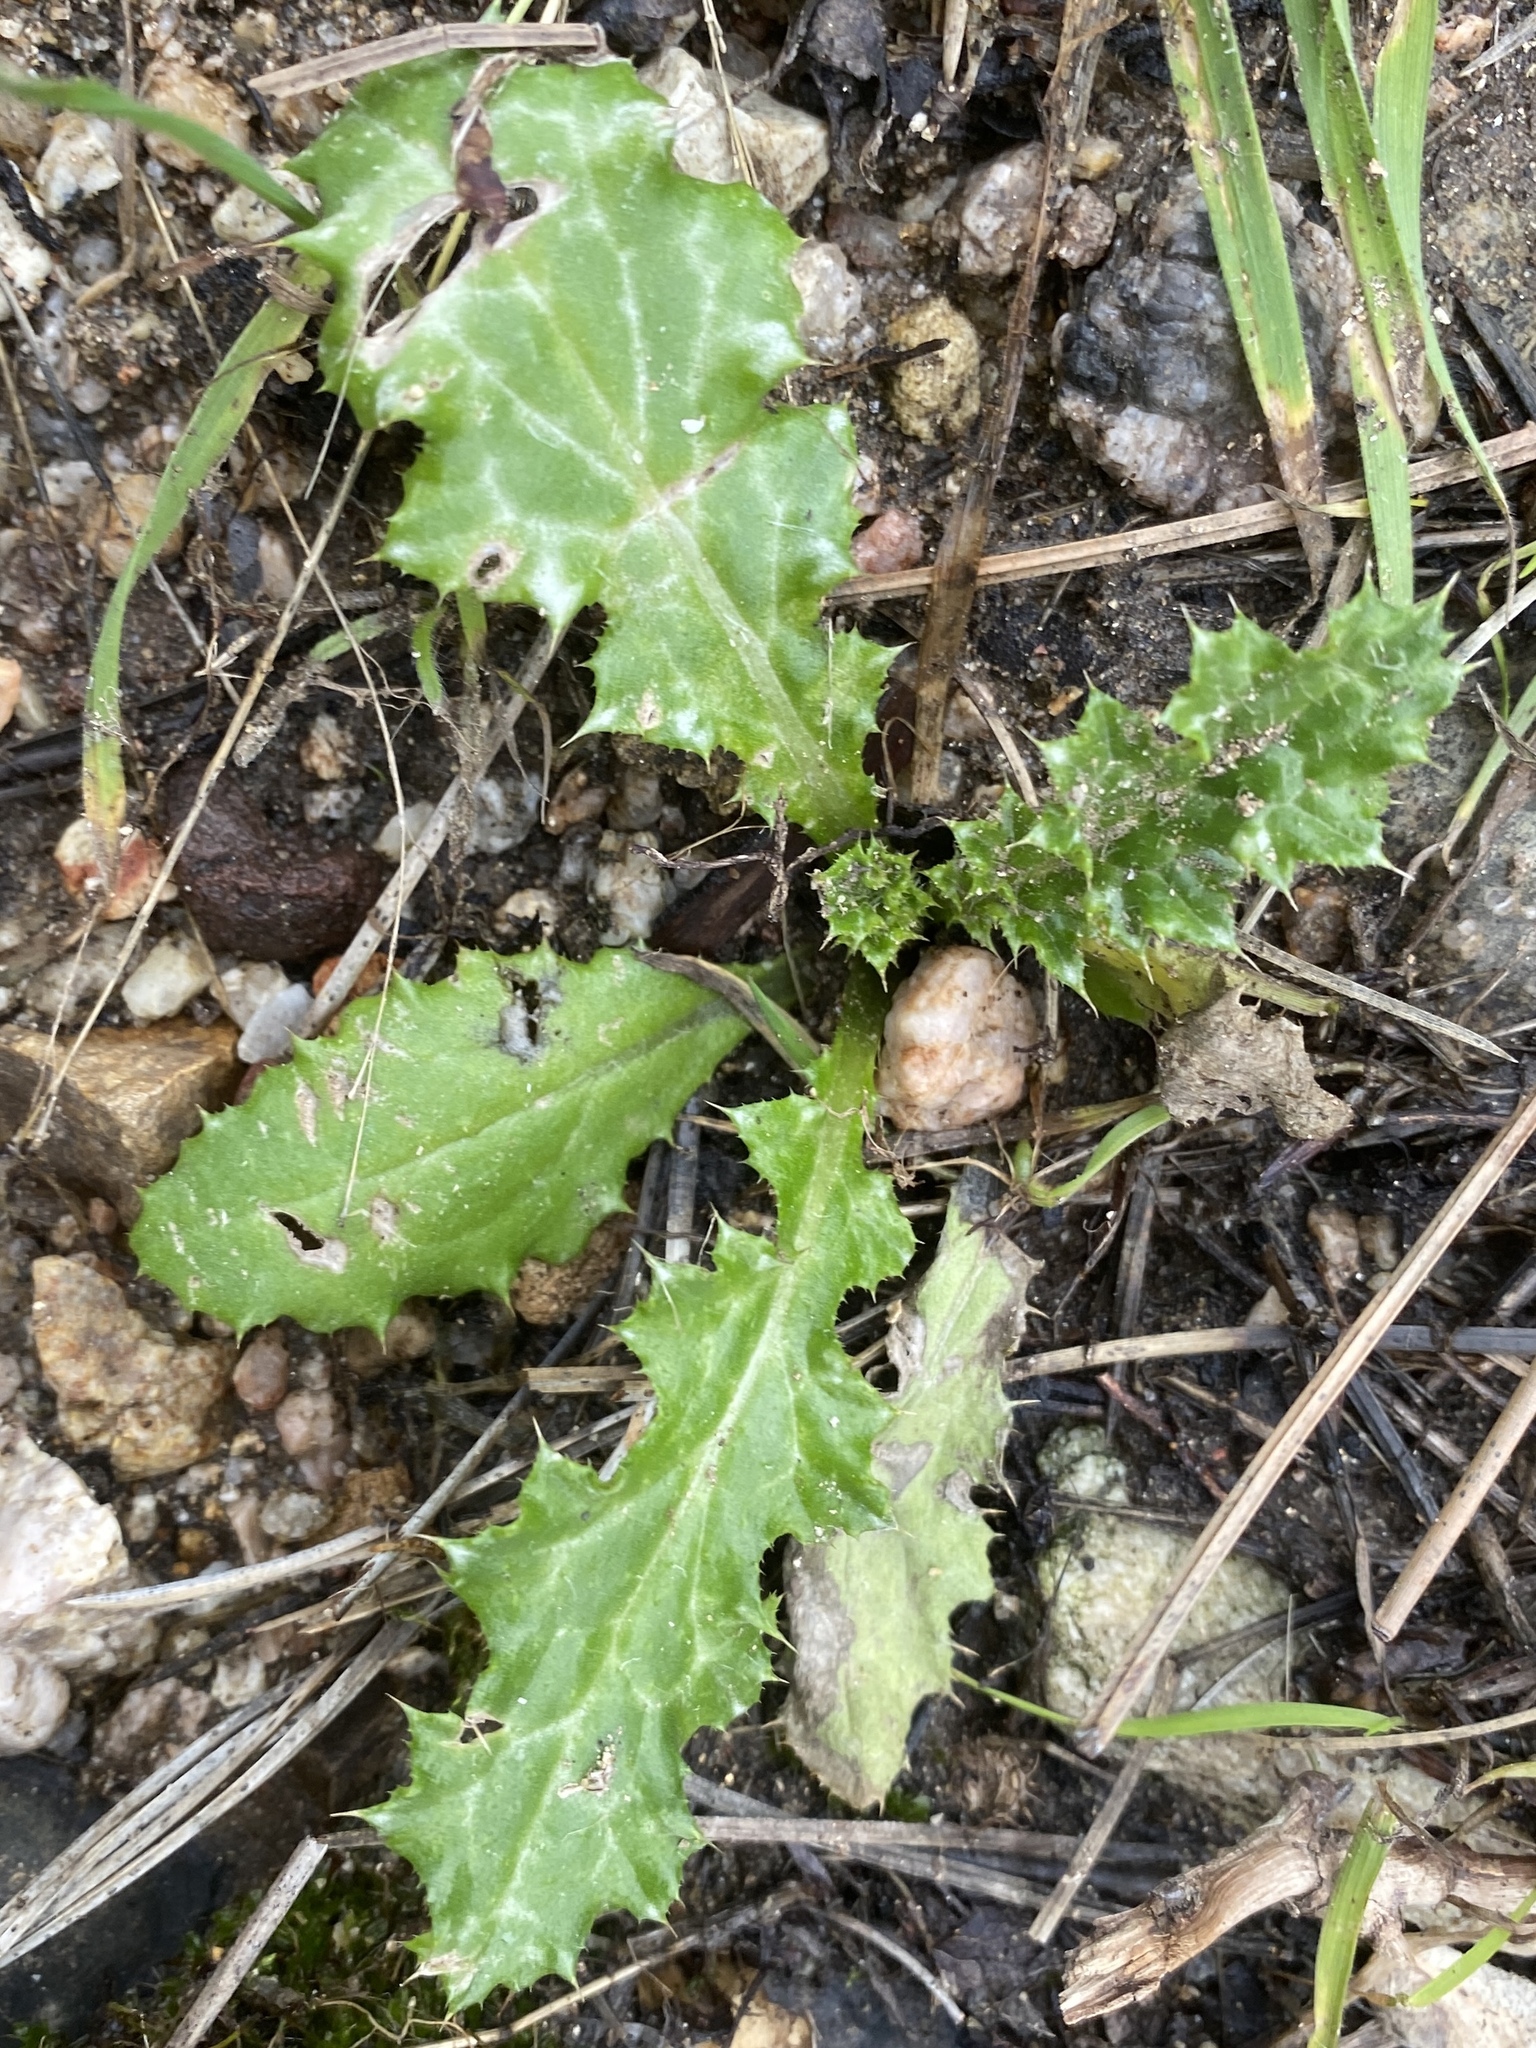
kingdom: Plantae
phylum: Tracheophyta
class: Magnoliopsida
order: Asterales
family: Asteraceae
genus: Carduus
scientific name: Carduus pycnocephalus
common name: Plymouth thistle
